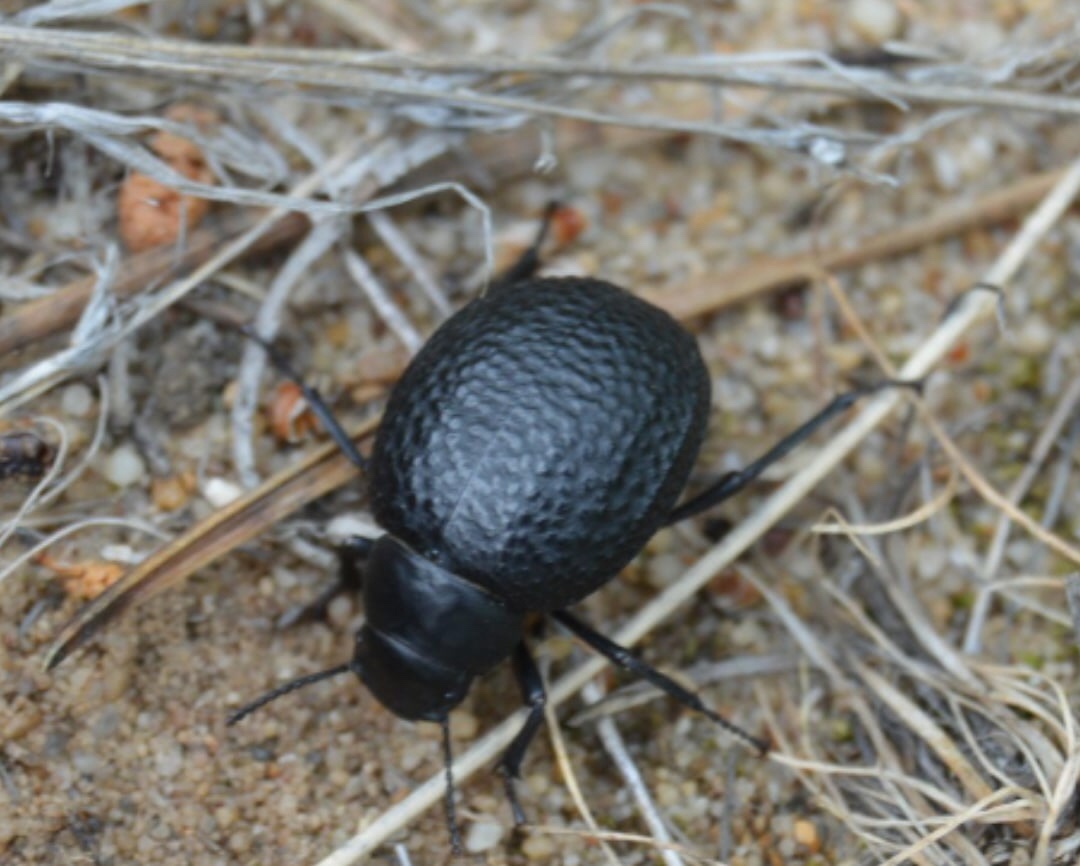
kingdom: Animalia
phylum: Arthropoda
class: Insecta
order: Coleoptera
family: Tenebrionidae
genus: Pimelia
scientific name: Pimelia subglobosa
